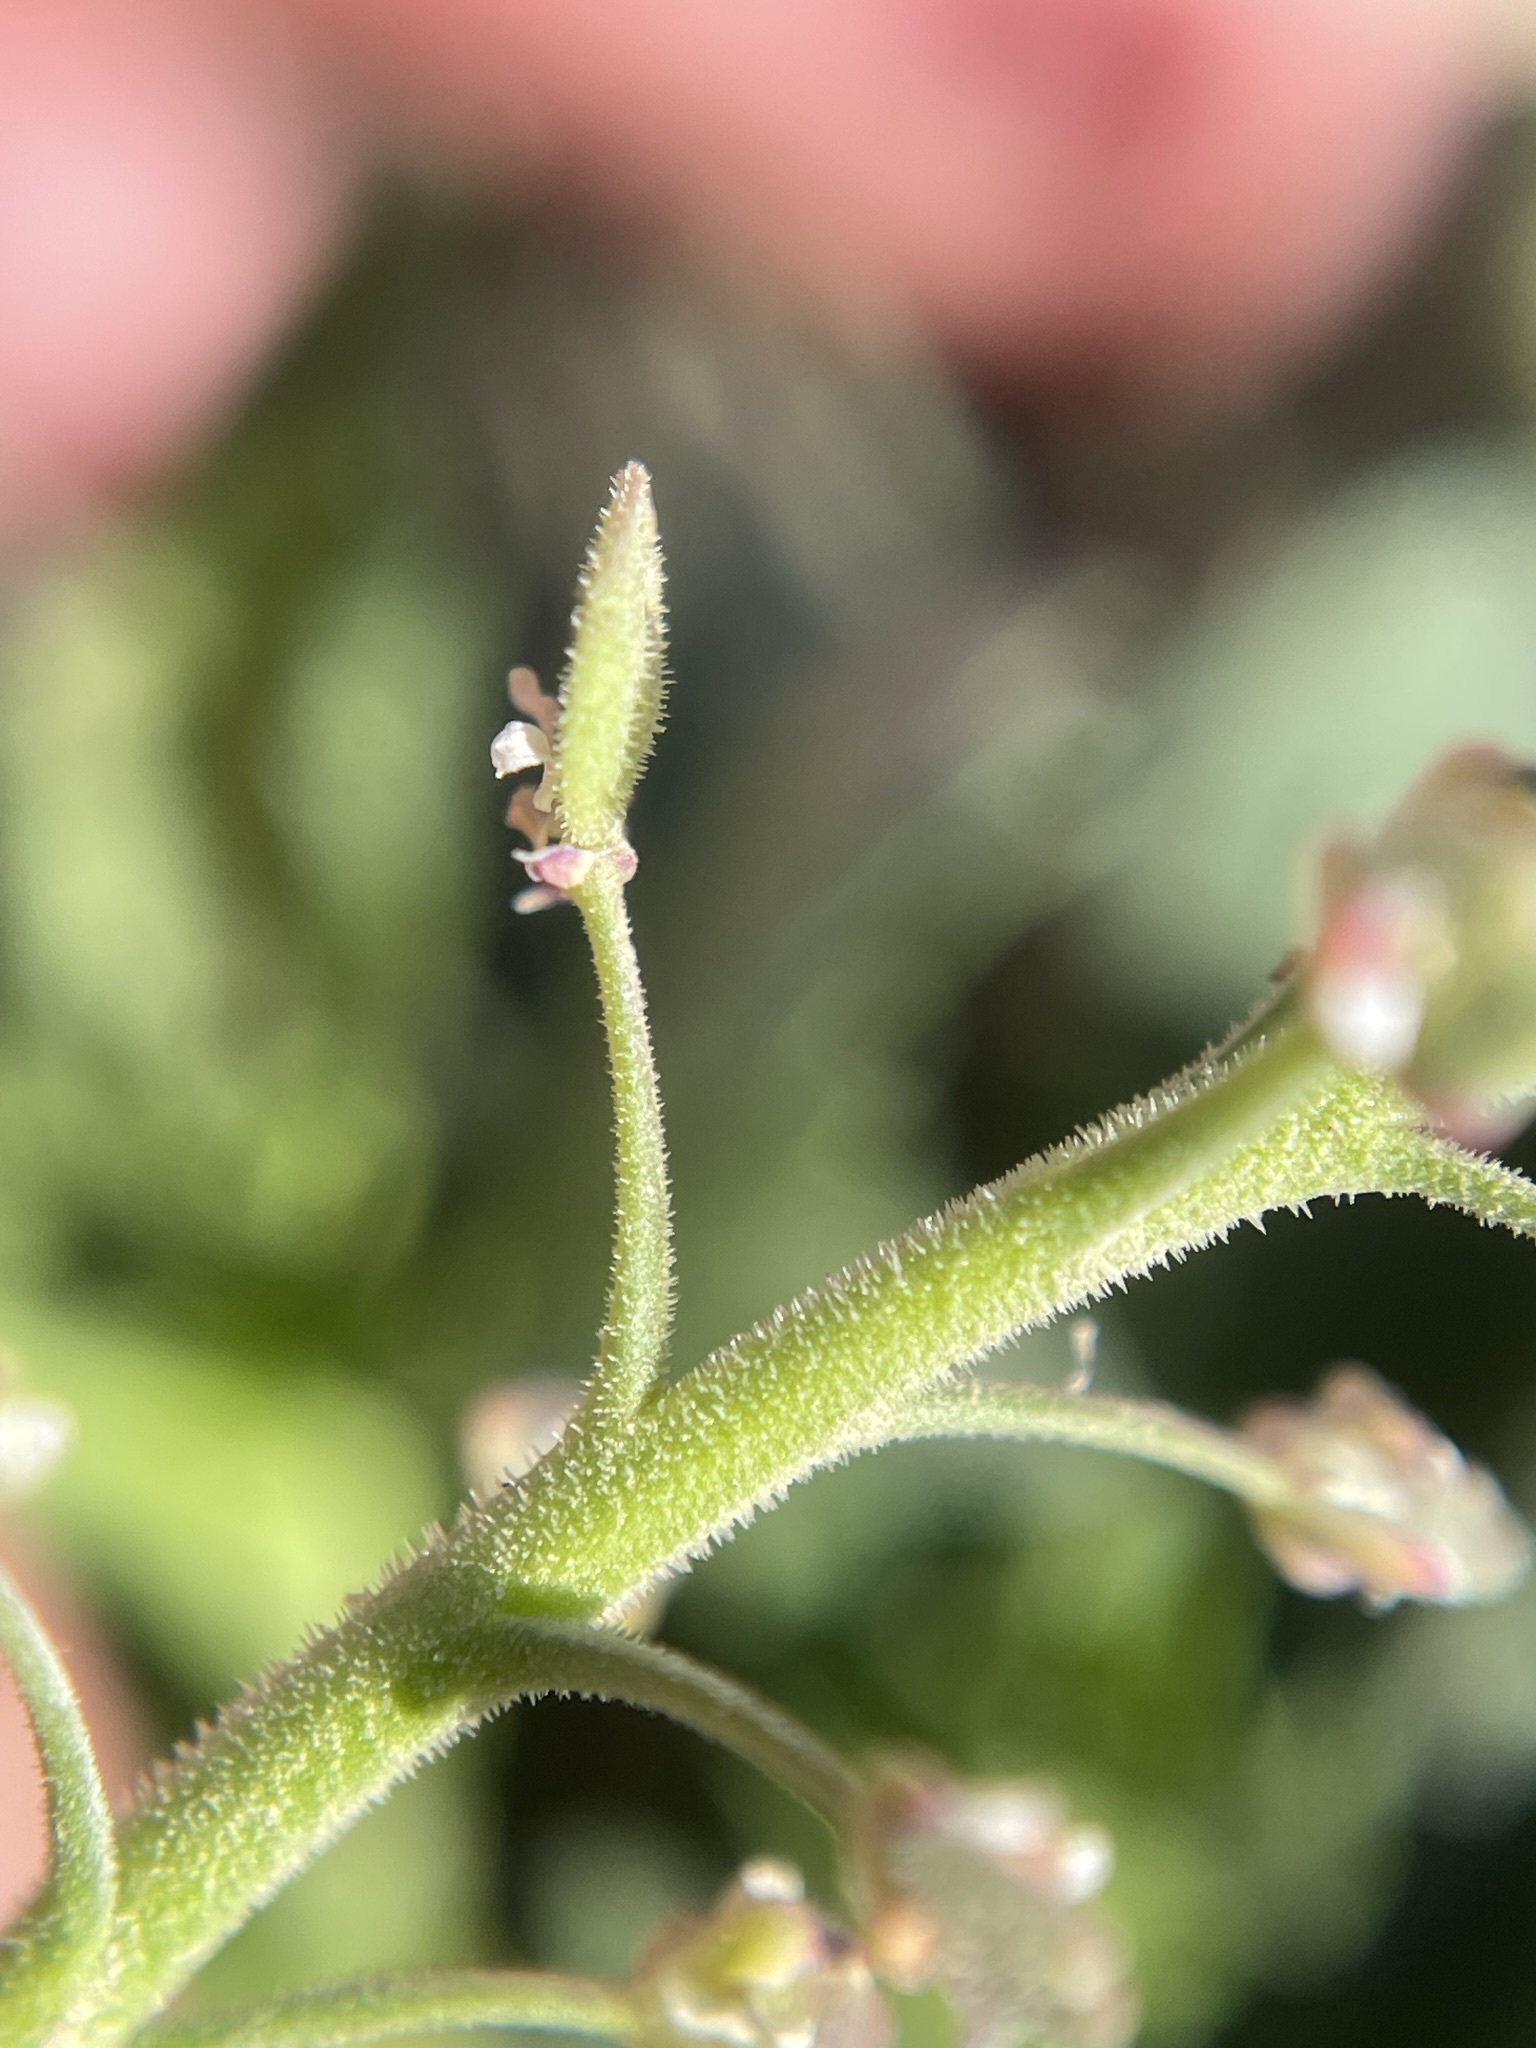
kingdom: Plantae
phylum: Tracheophyta
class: Magnoliopsida
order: Brassicales
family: Brassicaceae
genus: Lepidium
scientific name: Lepidium lasiocarpum
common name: Hairy-pod pepperwort
